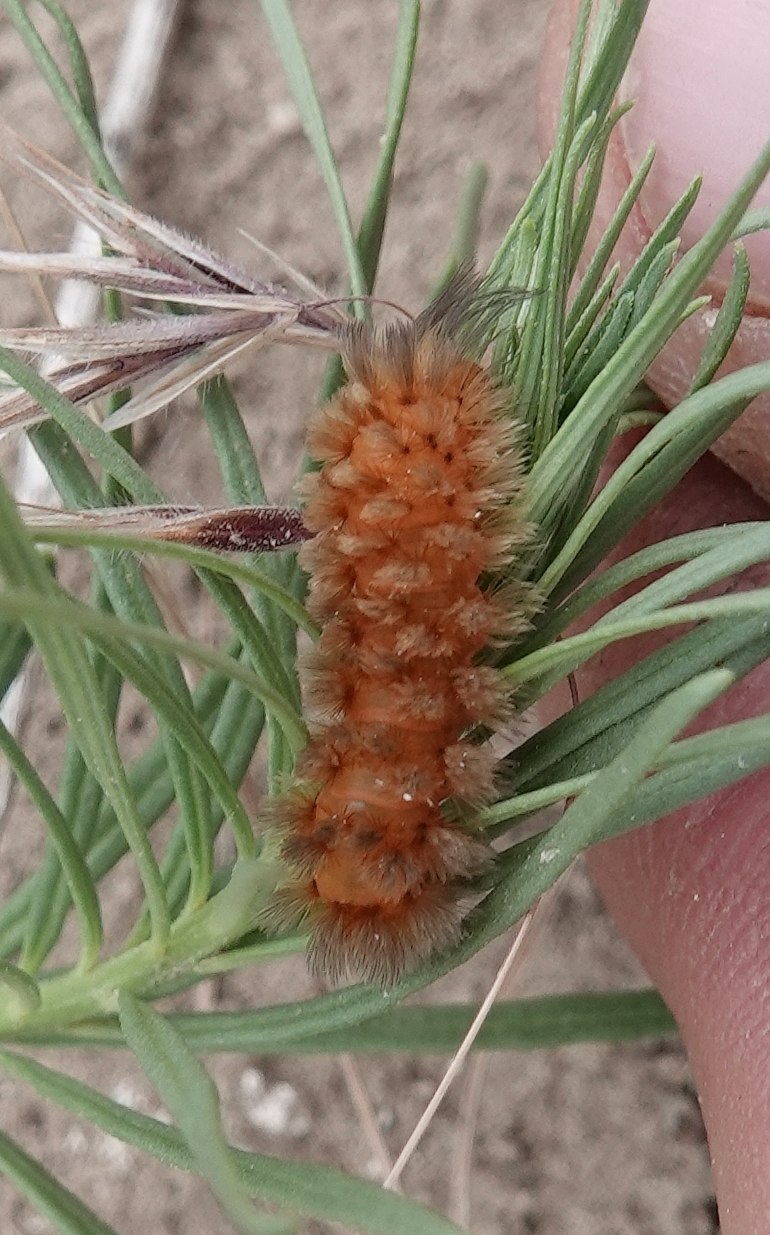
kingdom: Animalia
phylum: Arthropoda
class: Insecta
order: Lepidoptera
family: Erebidae
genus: Cycnia
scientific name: Cycnia collaris
